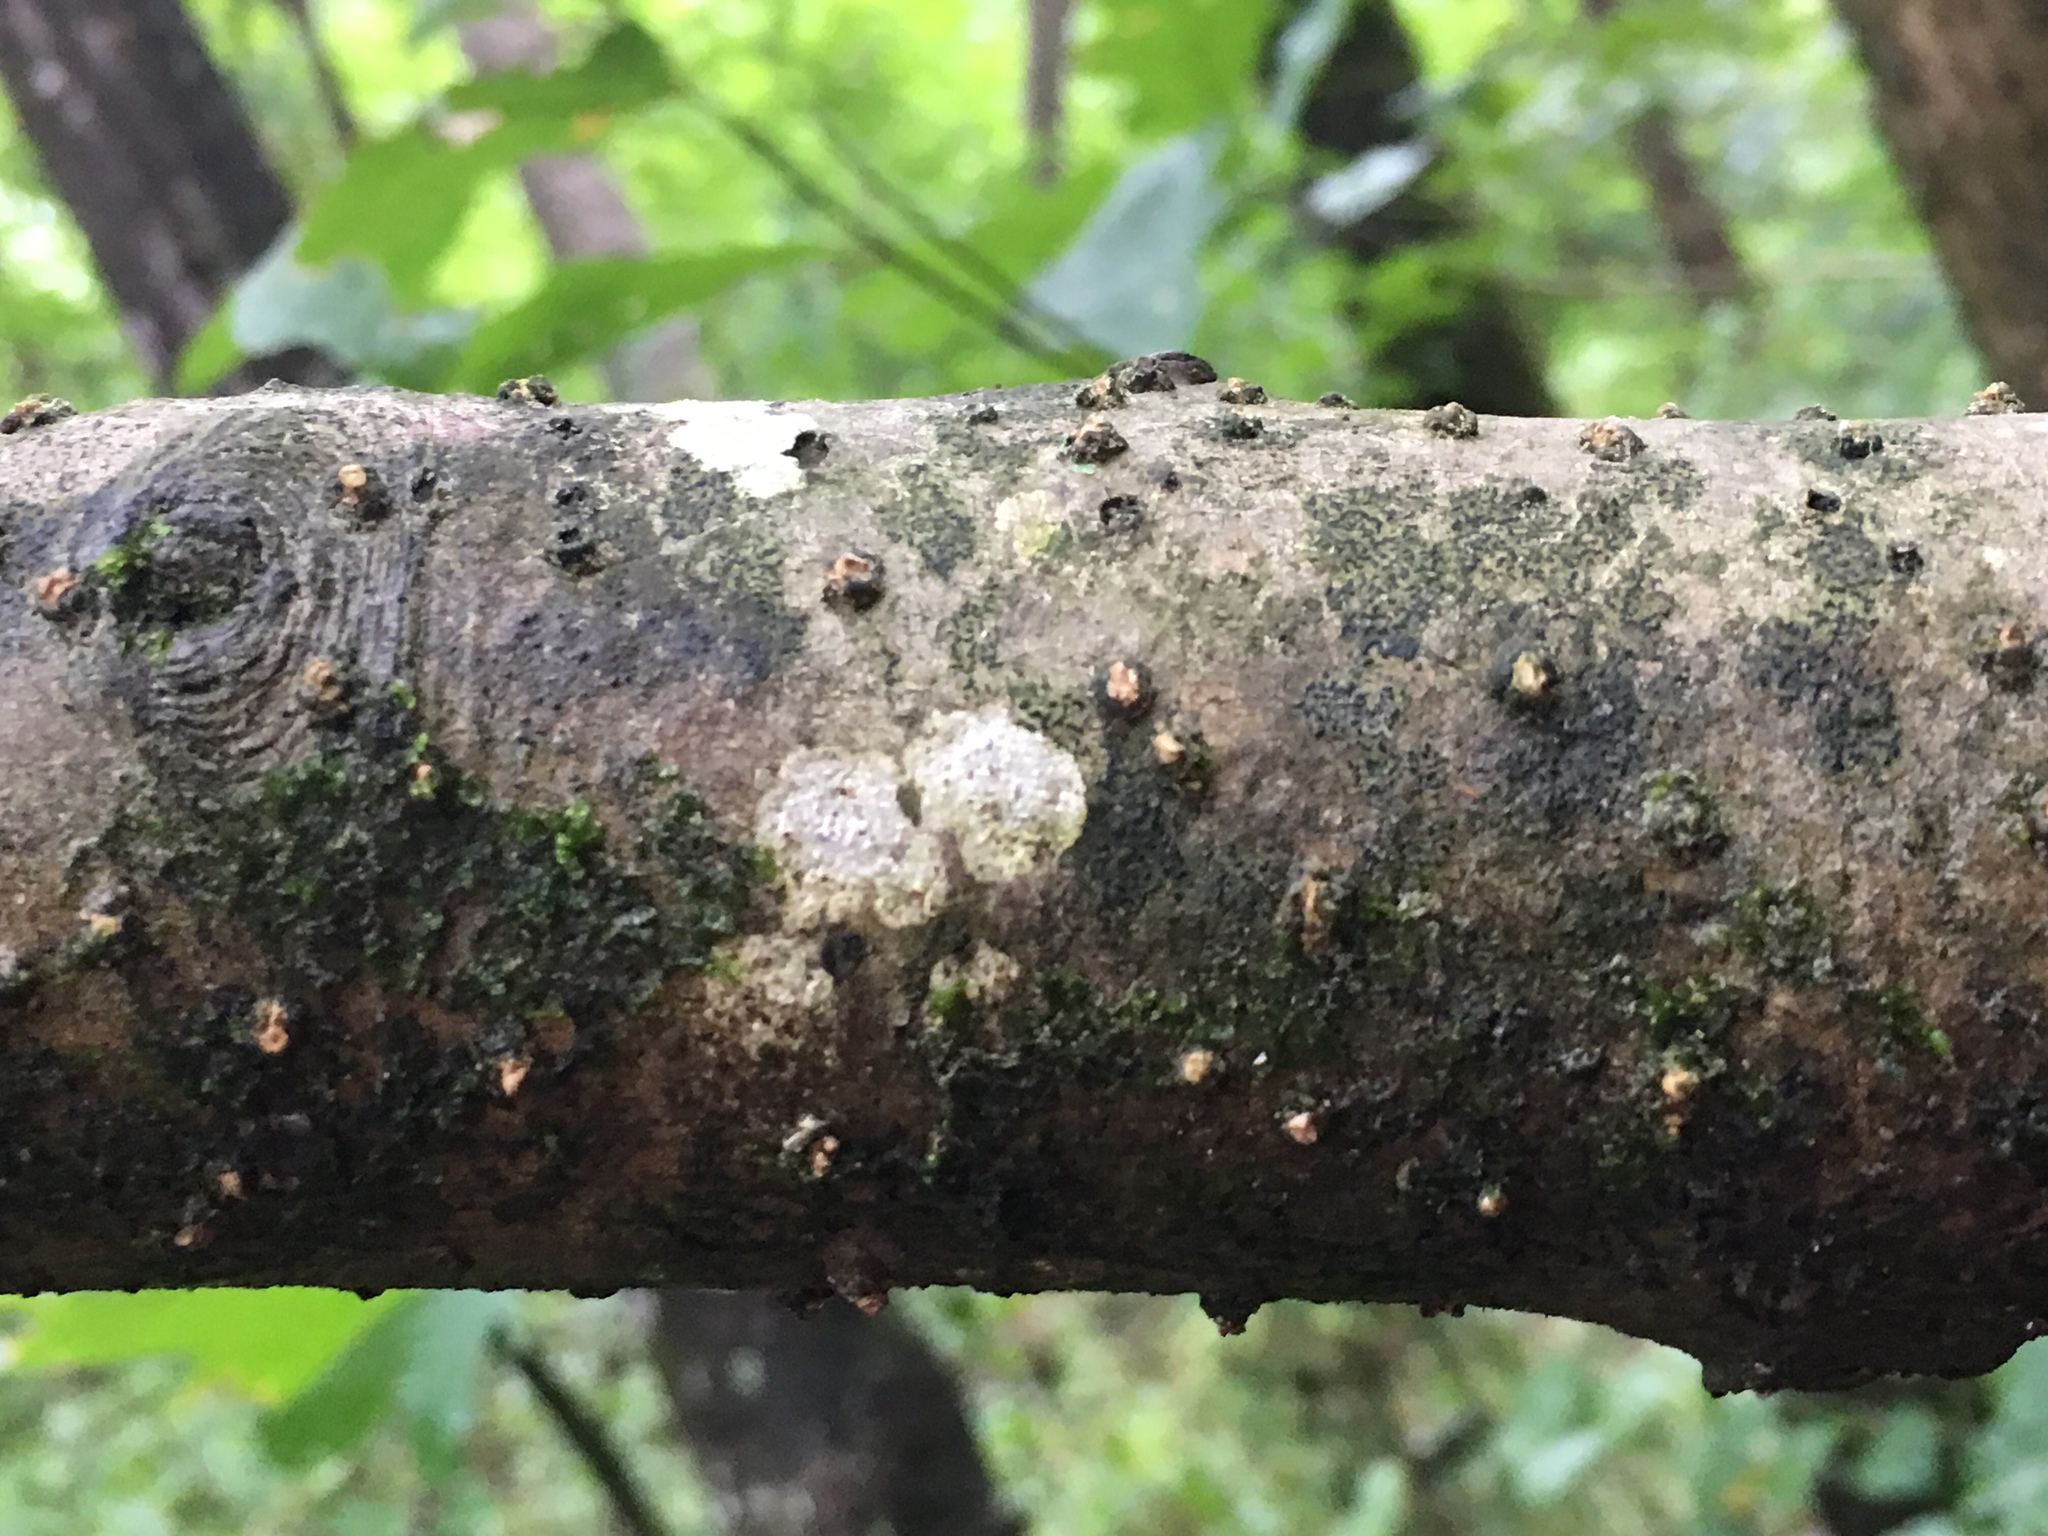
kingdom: Plantae
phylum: Tracheophyta
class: Magnoliopsida
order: Aquifoliales
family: Aquifoliaceae
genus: Ilex
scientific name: Ilex decidua
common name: Possum-haw
